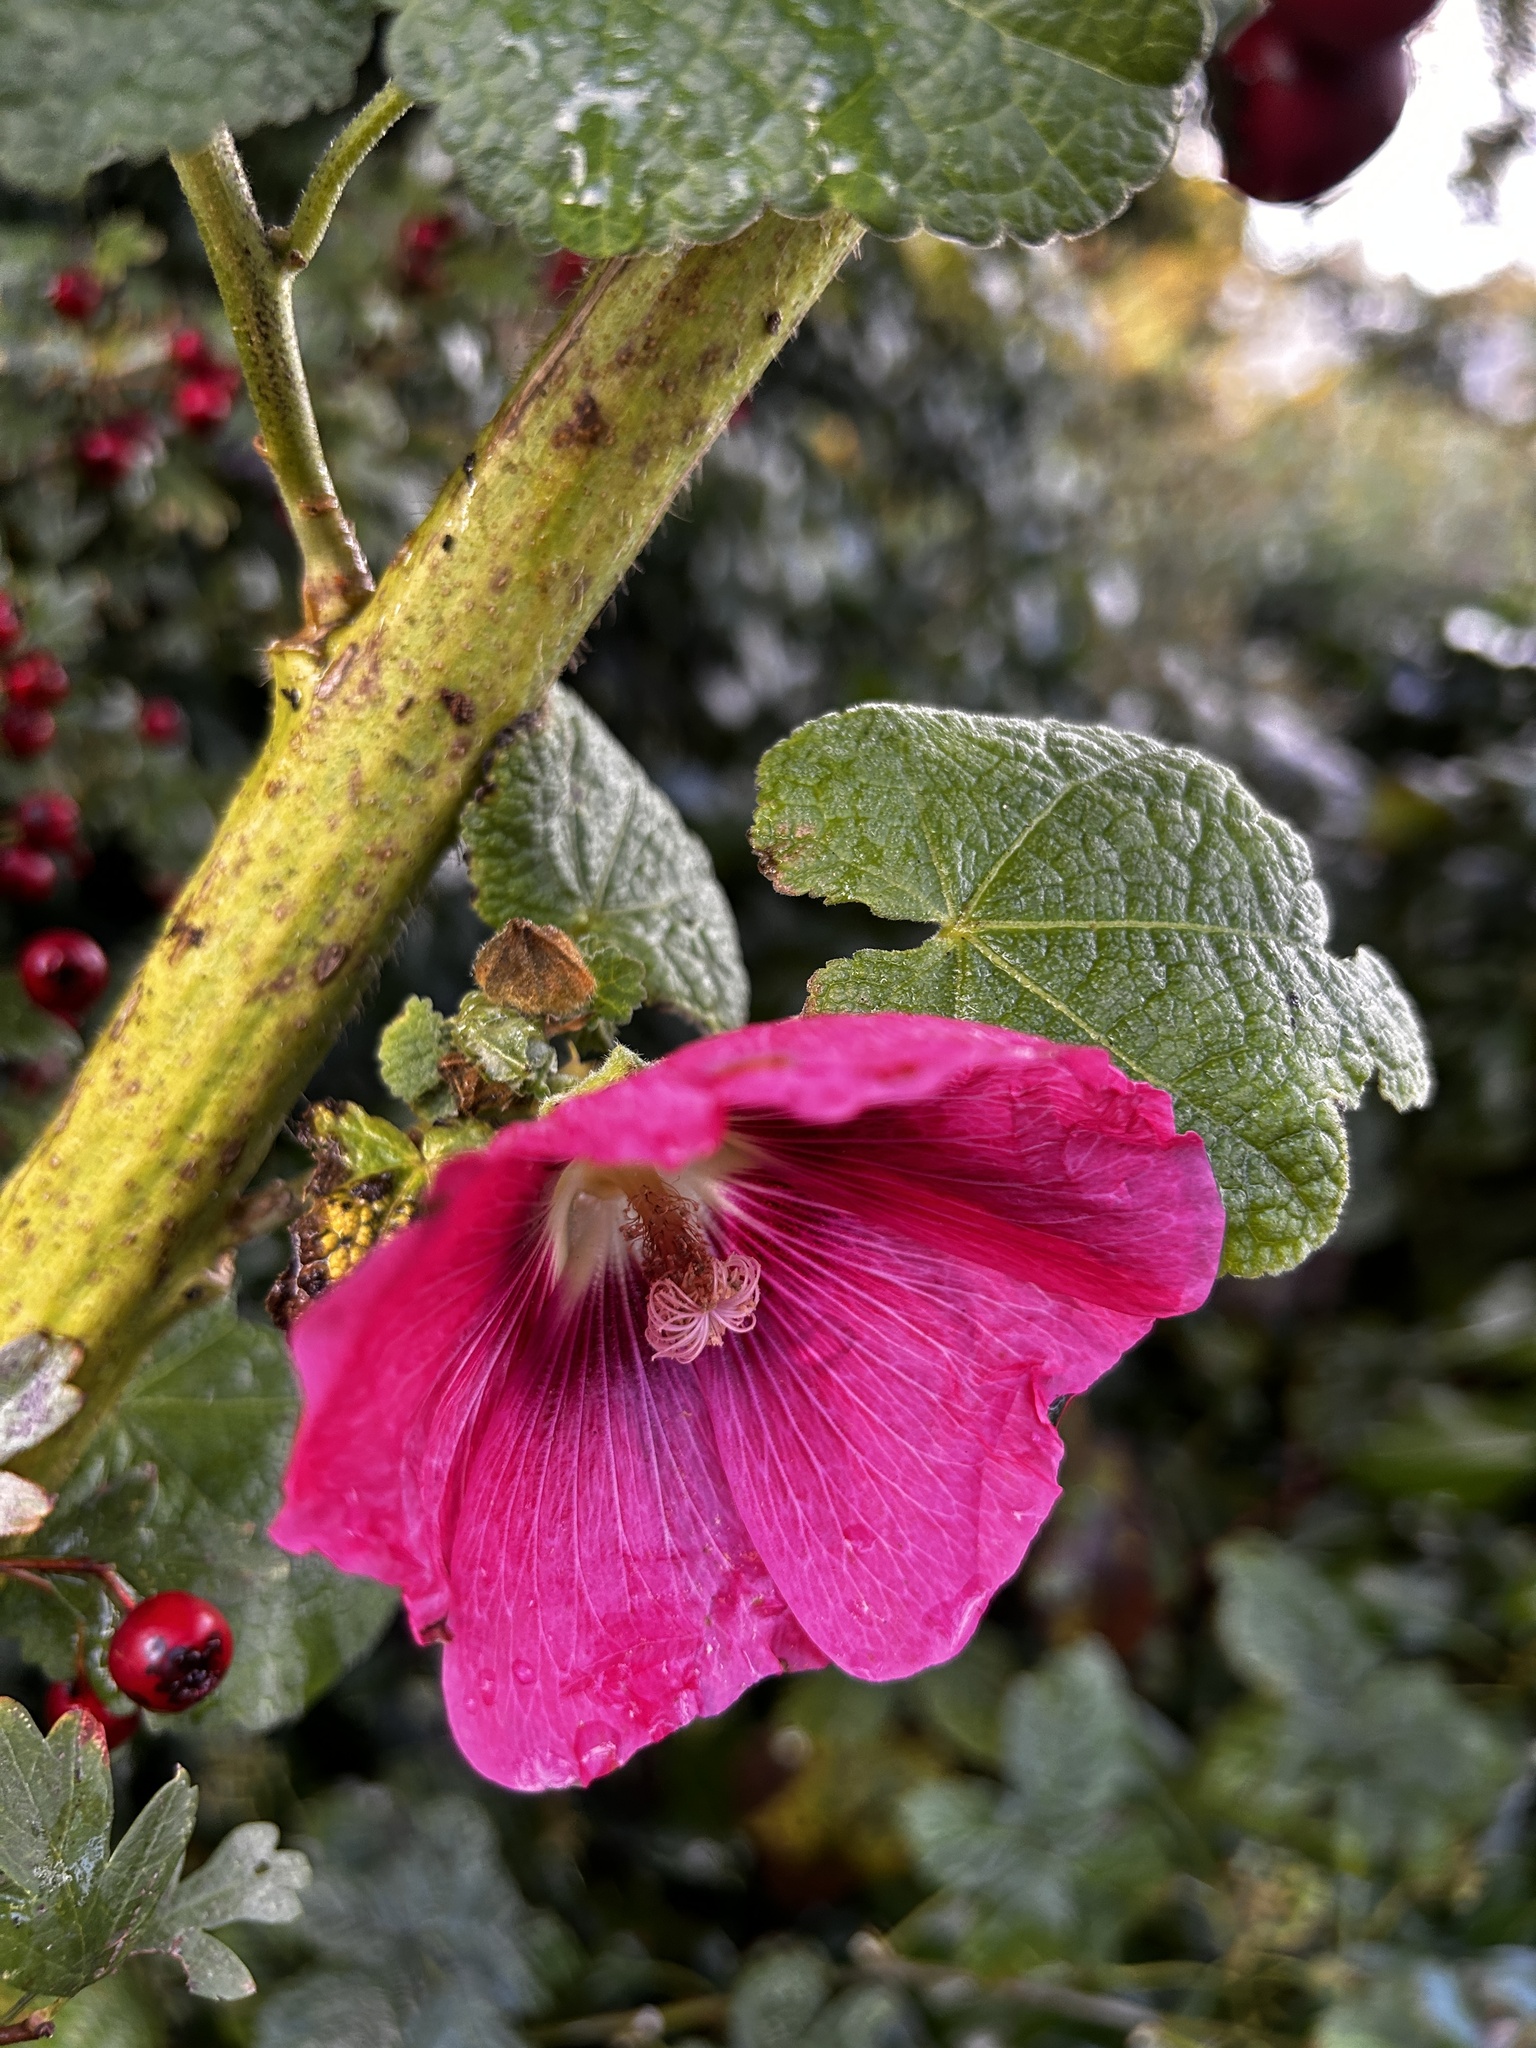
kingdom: Plantae
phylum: Tracheophyta
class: Magnoliopsida
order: Malvales
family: Malvaceae
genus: Alcea
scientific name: Alcea rosea
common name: Hollyhock
